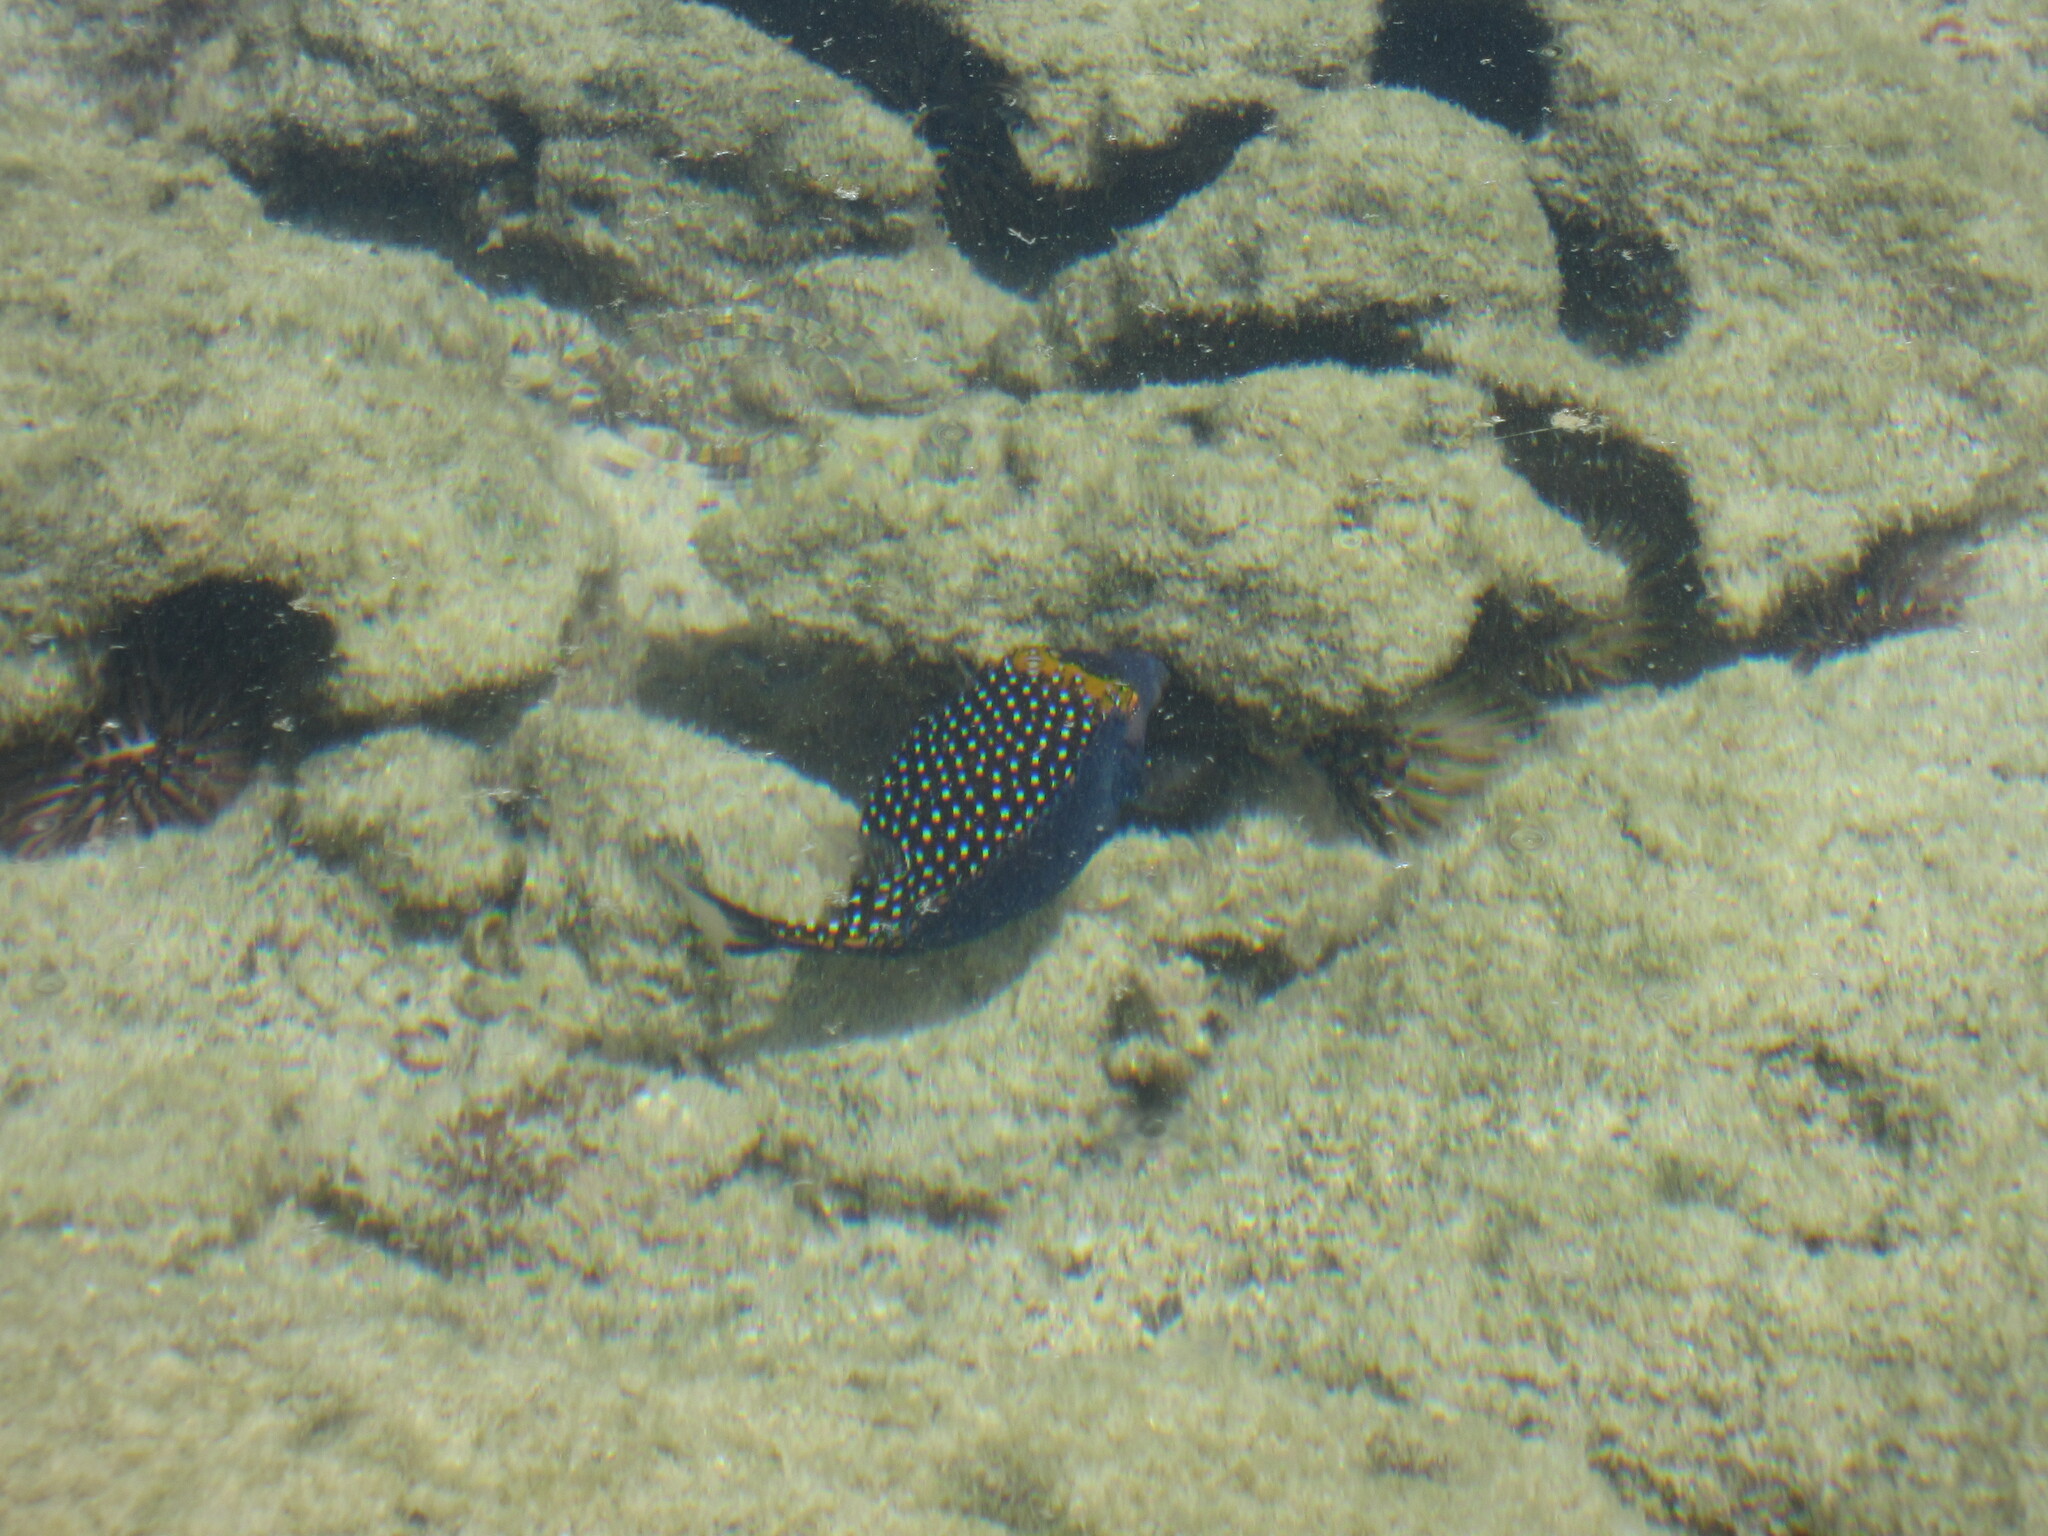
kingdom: Animalia
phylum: Chordata
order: Tetraodontiformes
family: Ostraciidae
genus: Ostracion
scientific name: Ostracion meleagris
